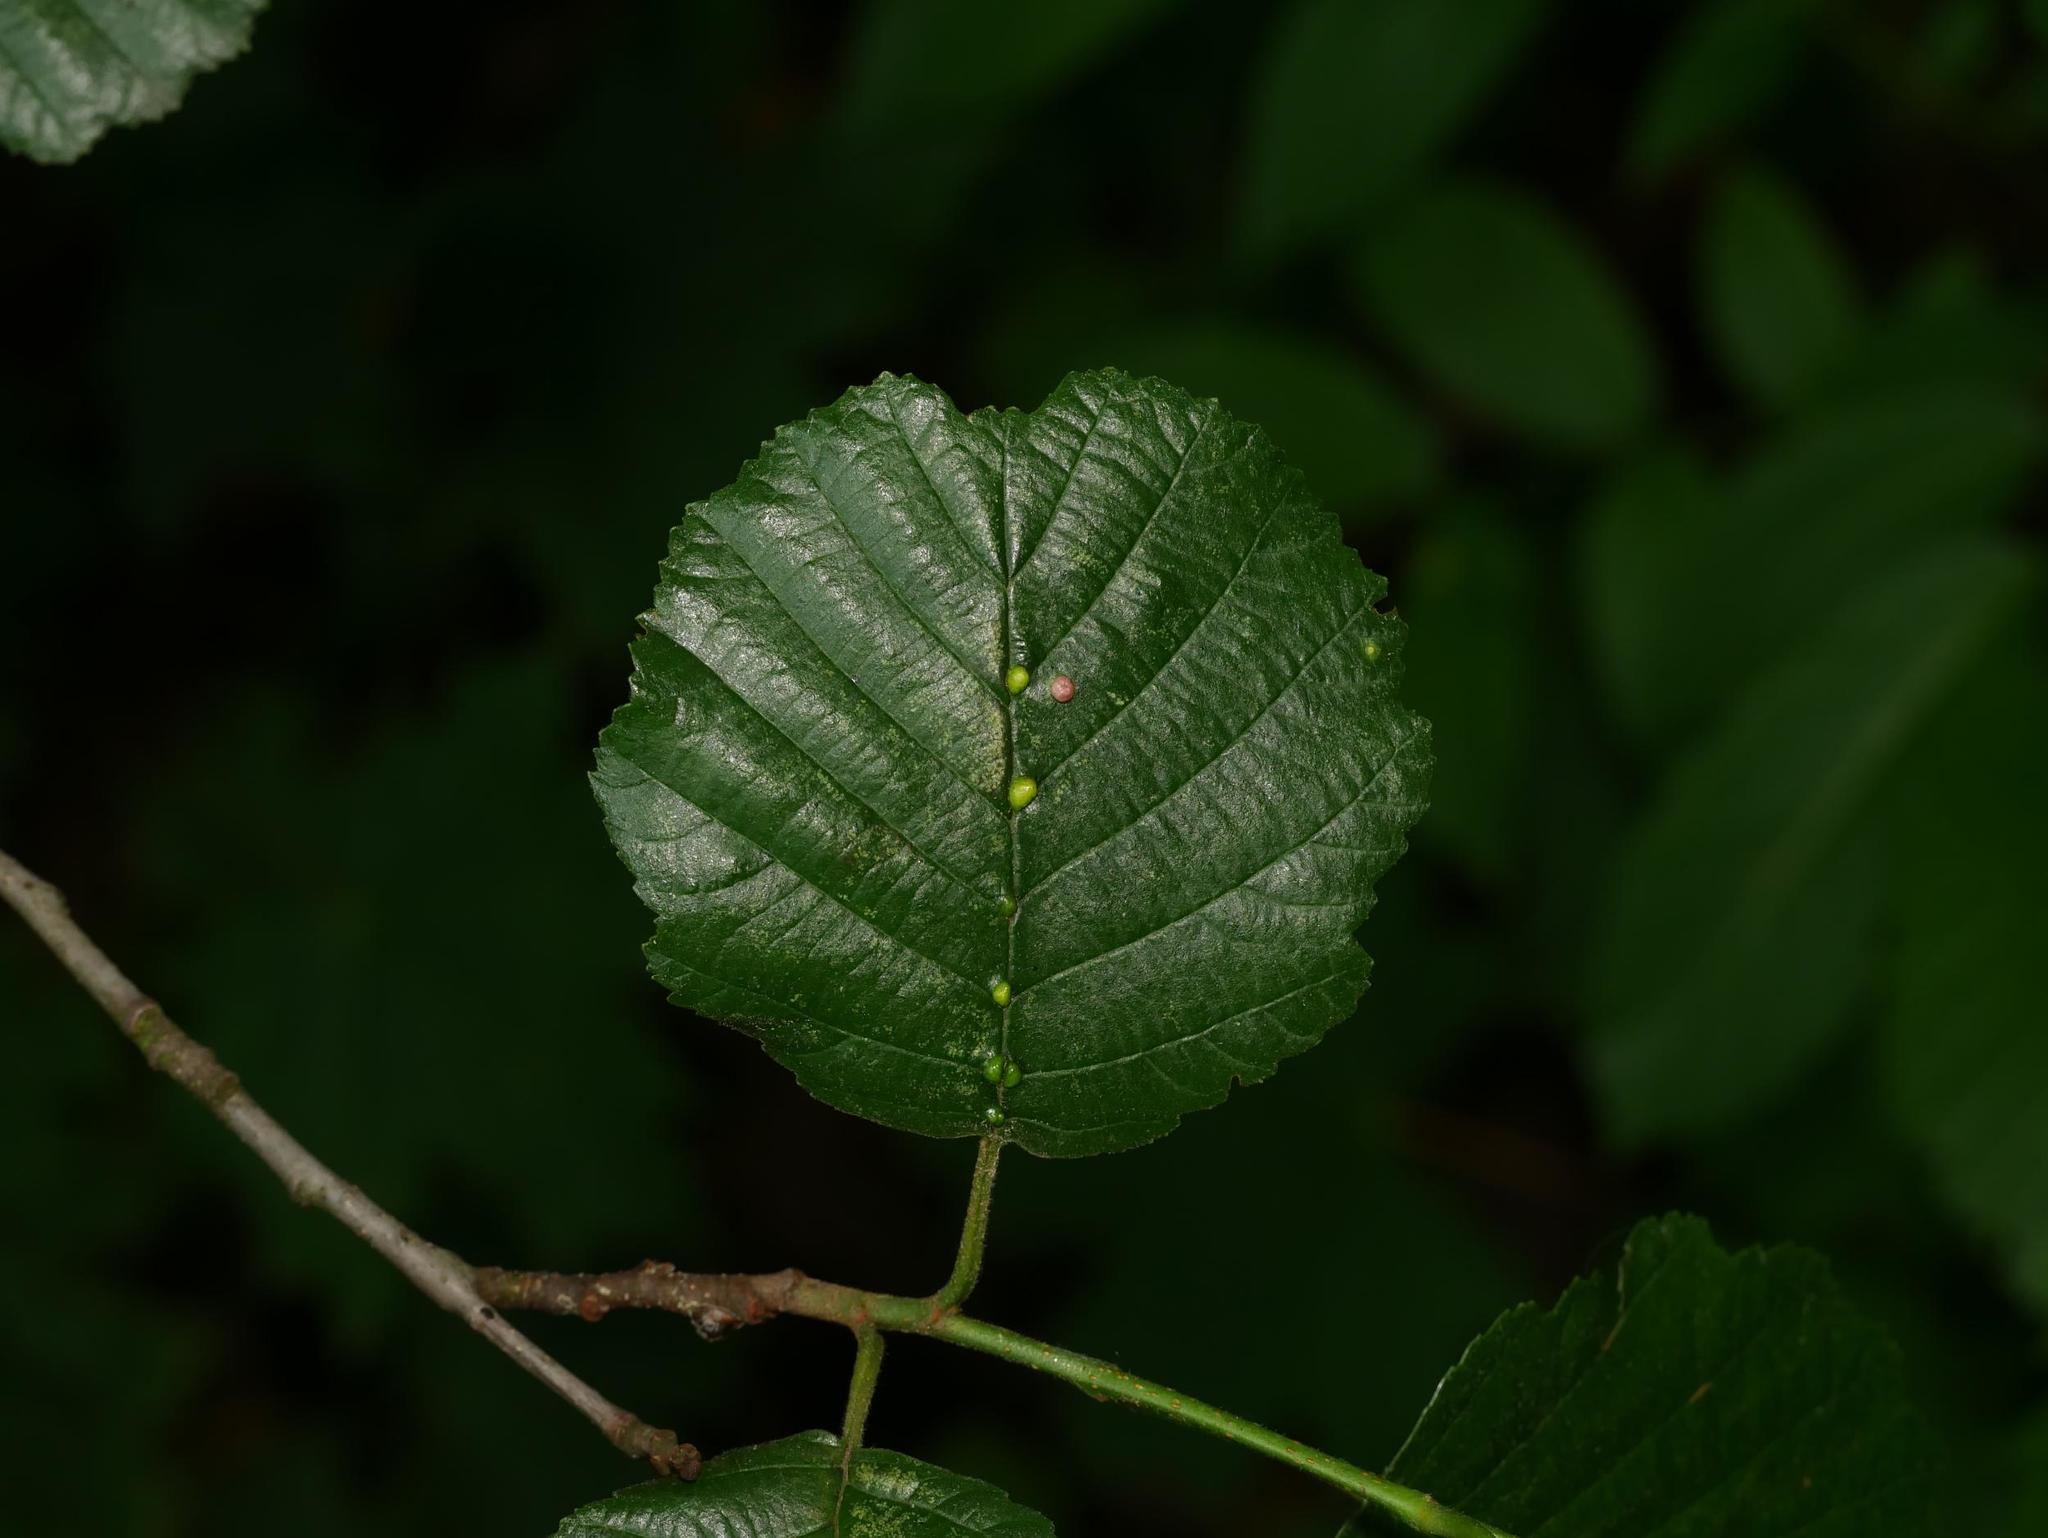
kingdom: Plantae
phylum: Tracheophyta
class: Magnoliopsida
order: Fagales
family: Betulaceae
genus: Alnus
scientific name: Alnus glutinosa
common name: Black alder
